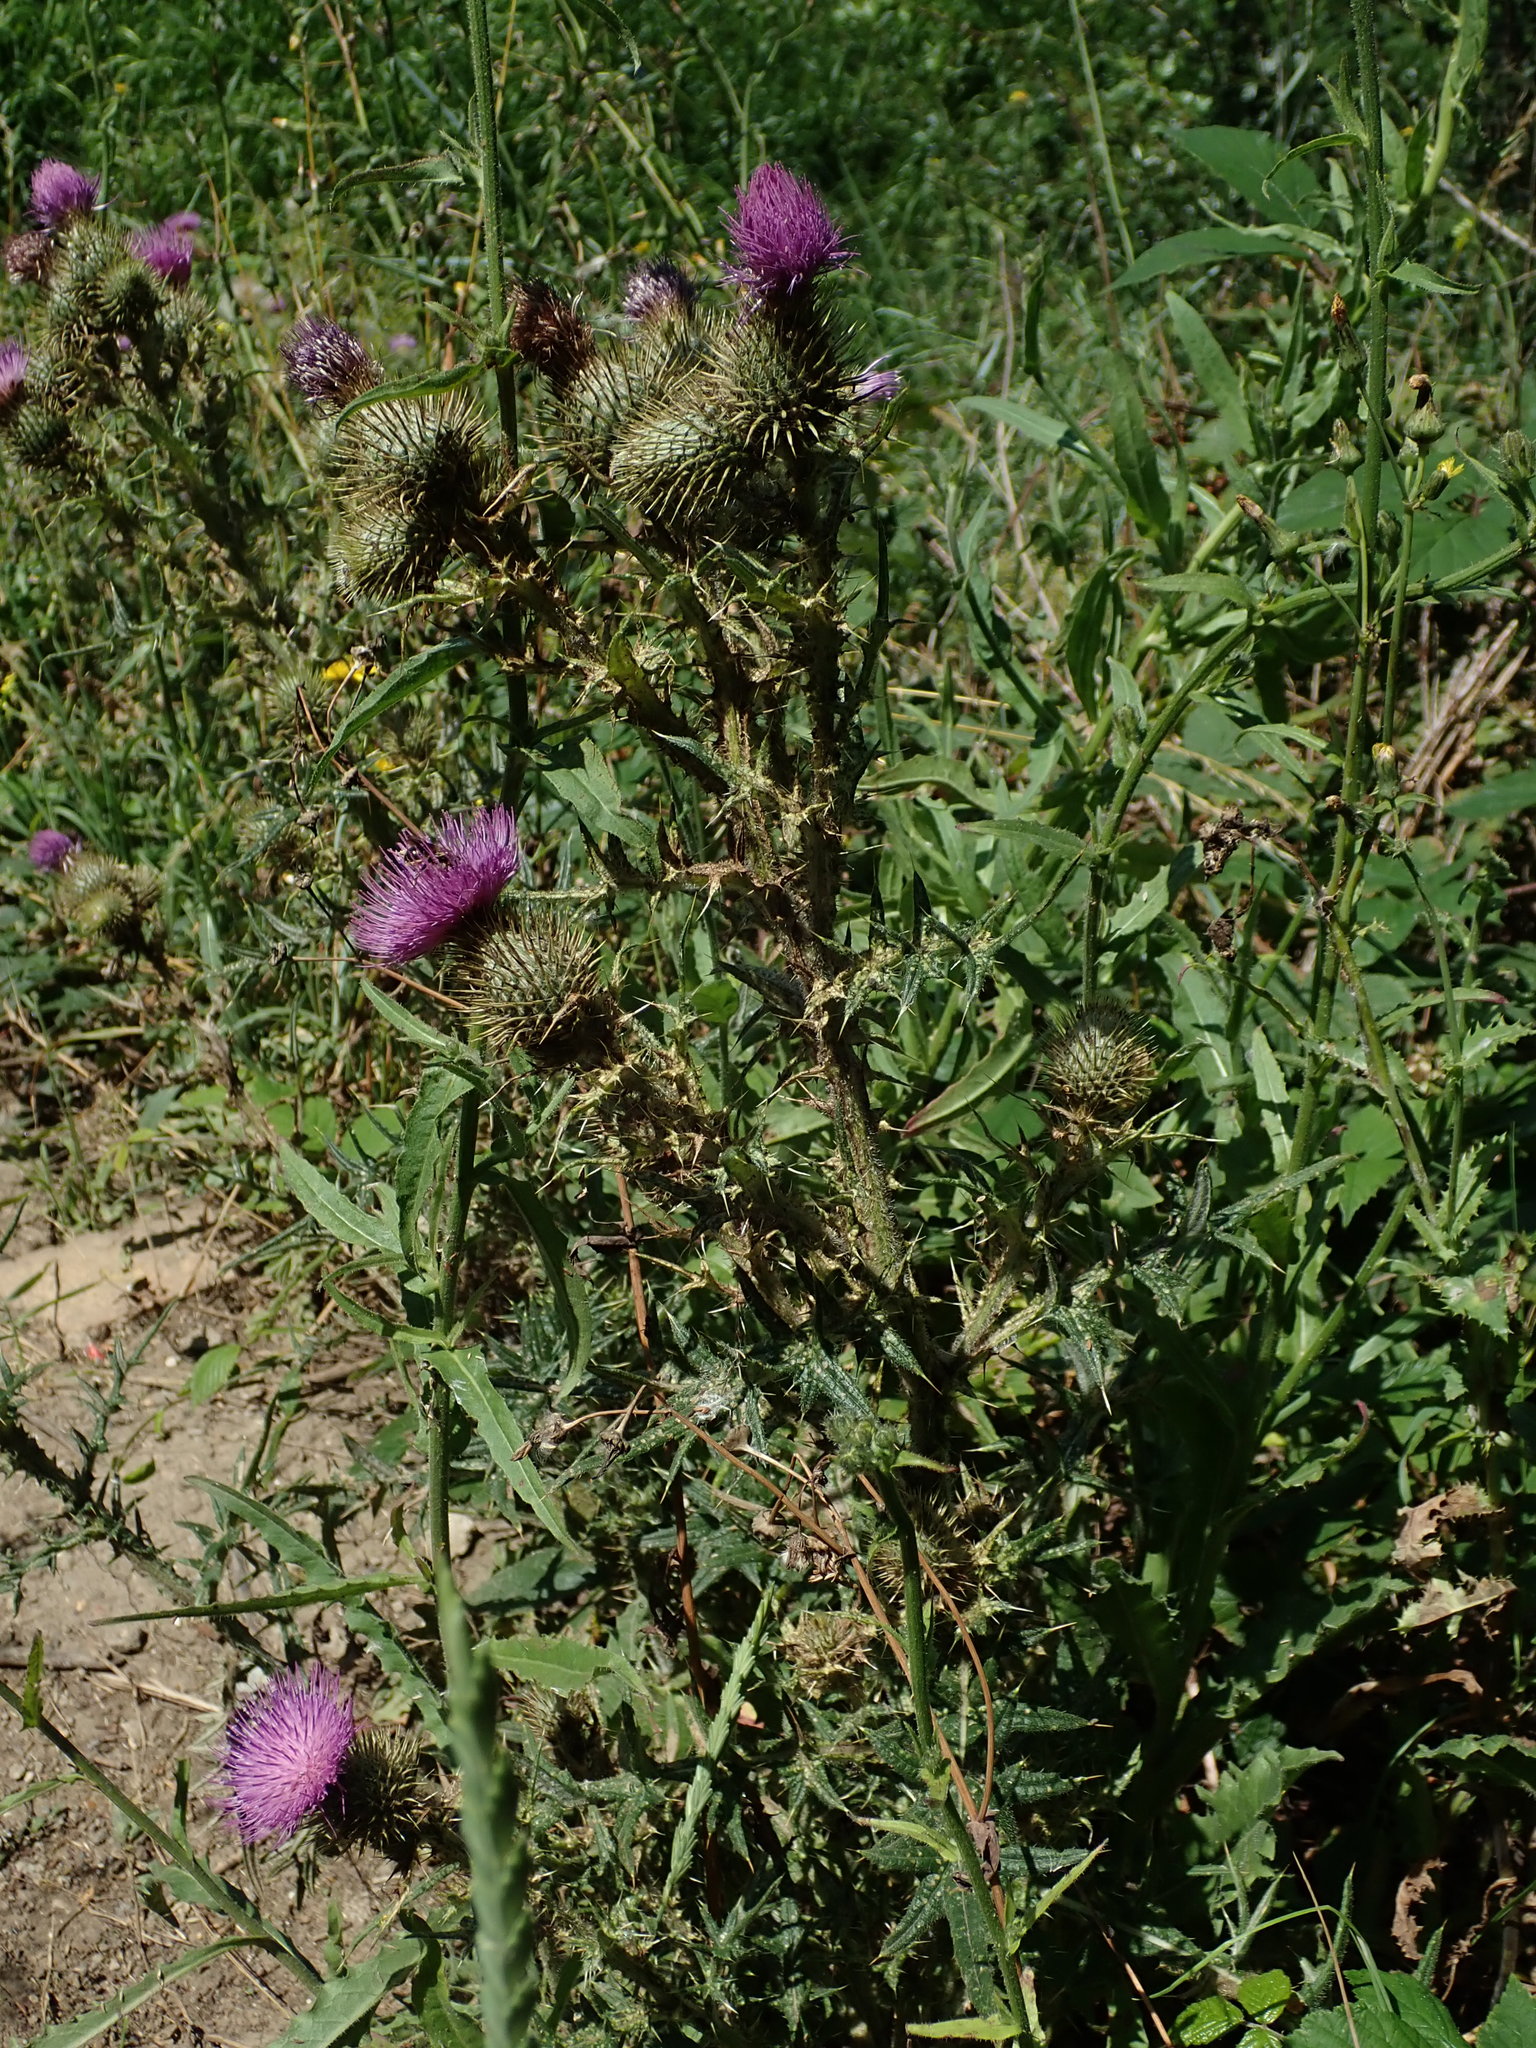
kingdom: Plantae
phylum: Tracheophyta
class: Magnoliopsida
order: Asterales
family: Asteraceae
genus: Cirsium
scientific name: Cirsium vulgare
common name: Bull thistle
